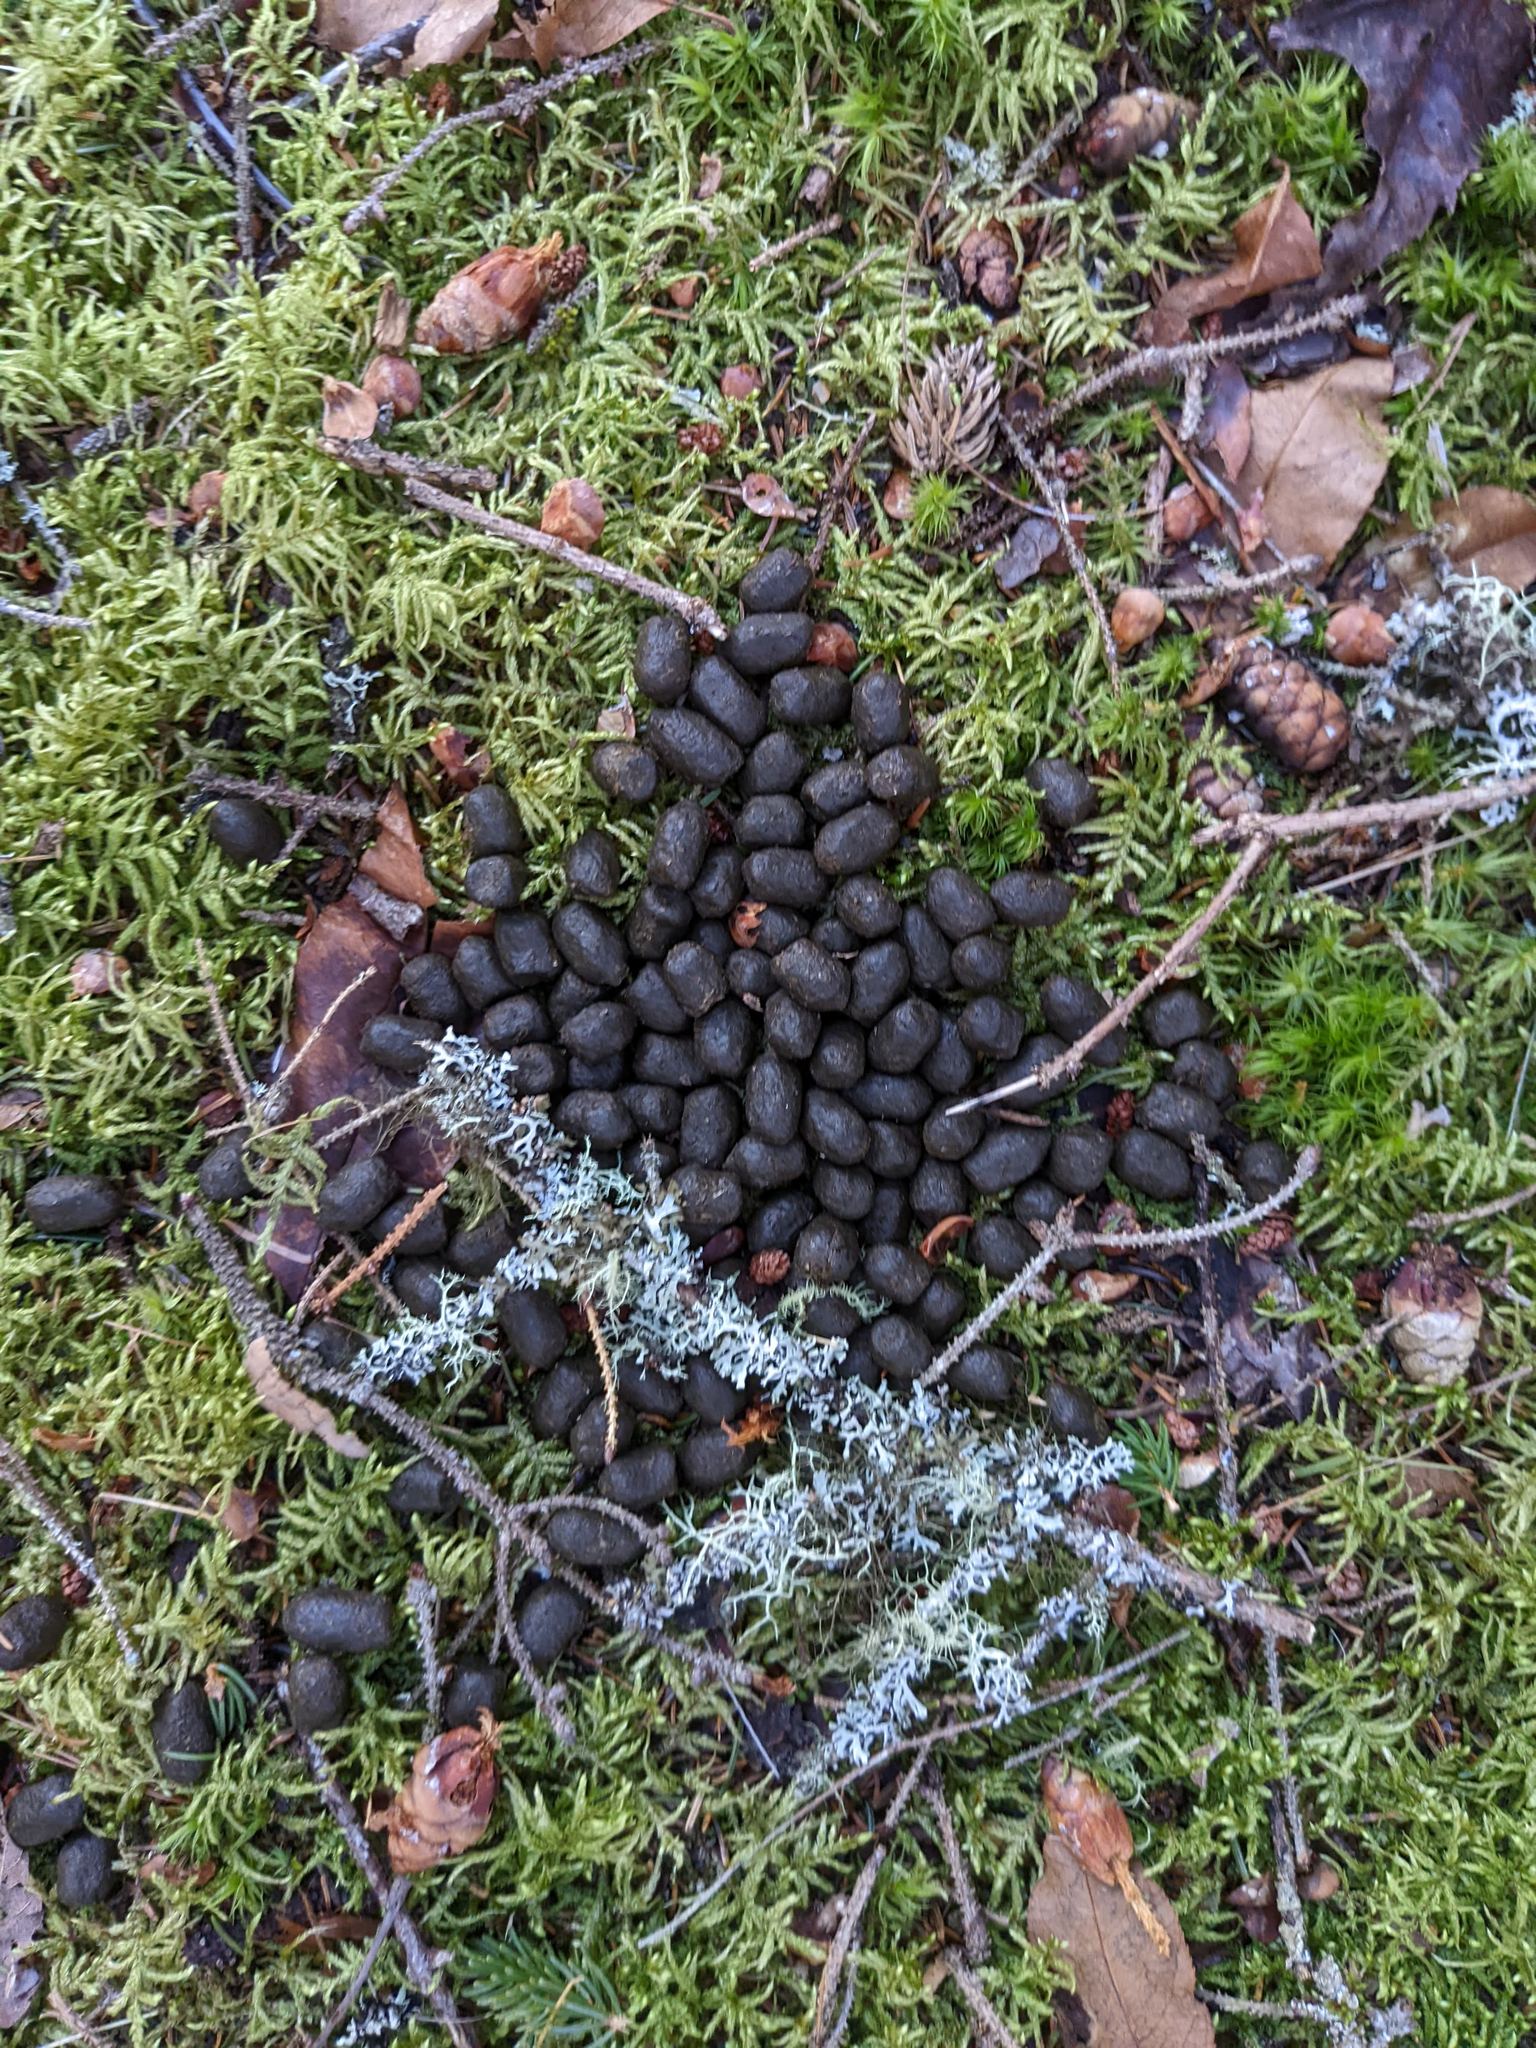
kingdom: Animalia
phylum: Chordata
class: Mammalia
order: Artiodactyla
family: Cervidae
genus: Odocoileus
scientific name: Odocoileus virginianus
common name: White-tailed deer
